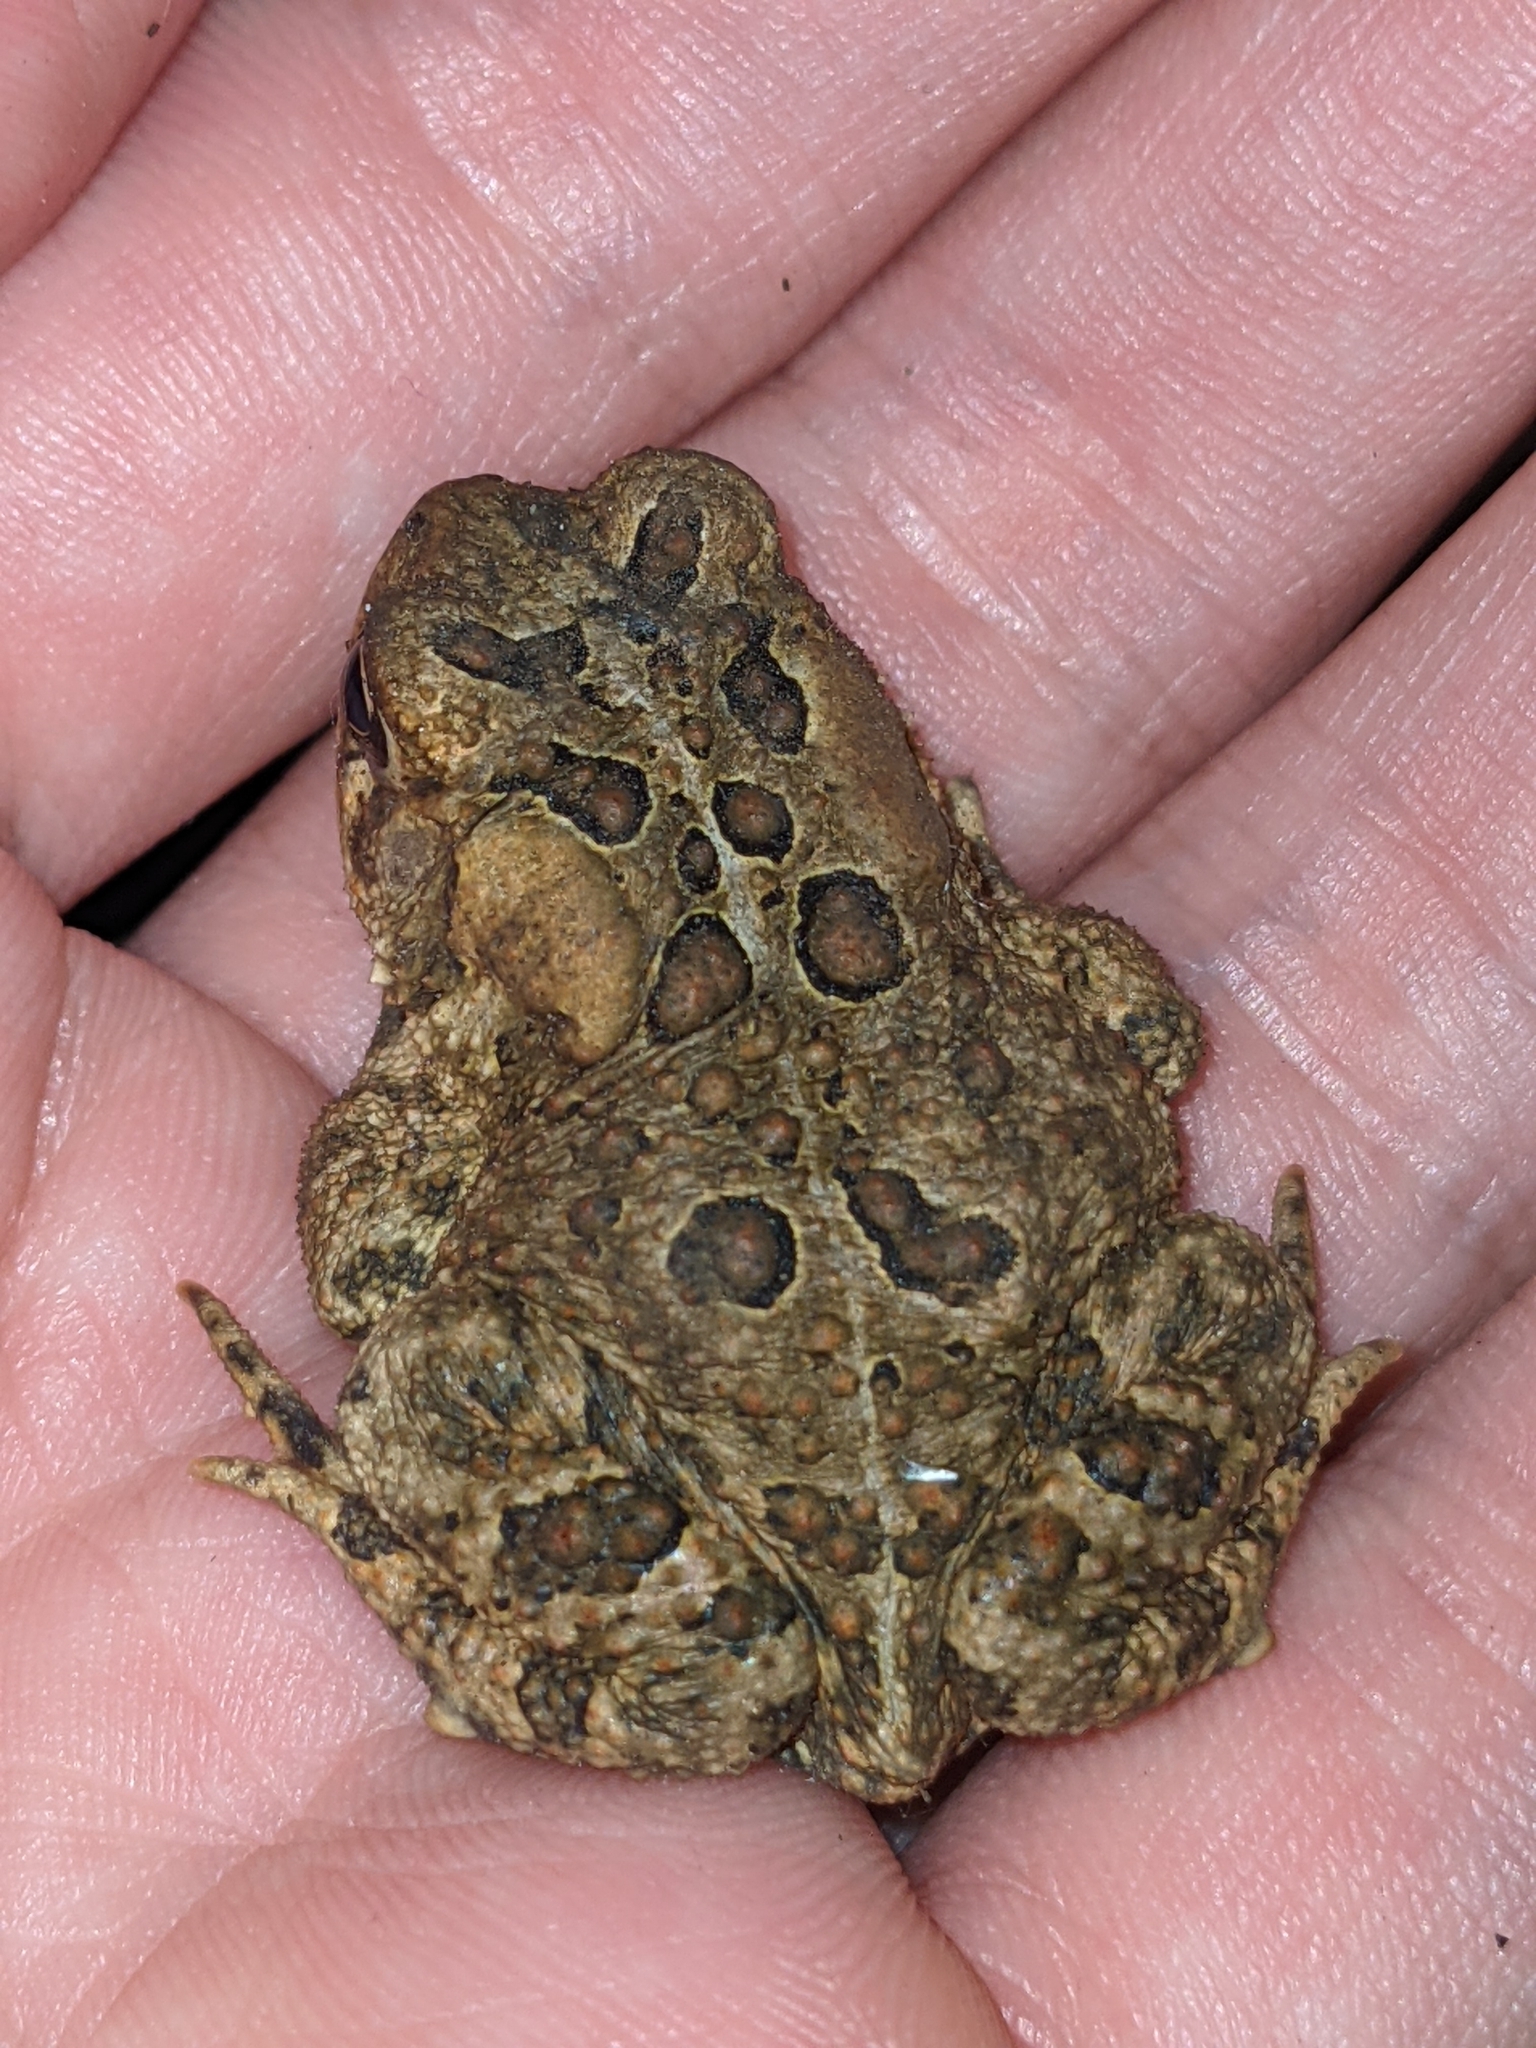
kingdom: Animalia
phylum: Chordata
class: Amphibia
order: Anura
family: Bufonidae
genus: Anaxyrus
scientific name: Anaxyrus americanus
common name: American toad
